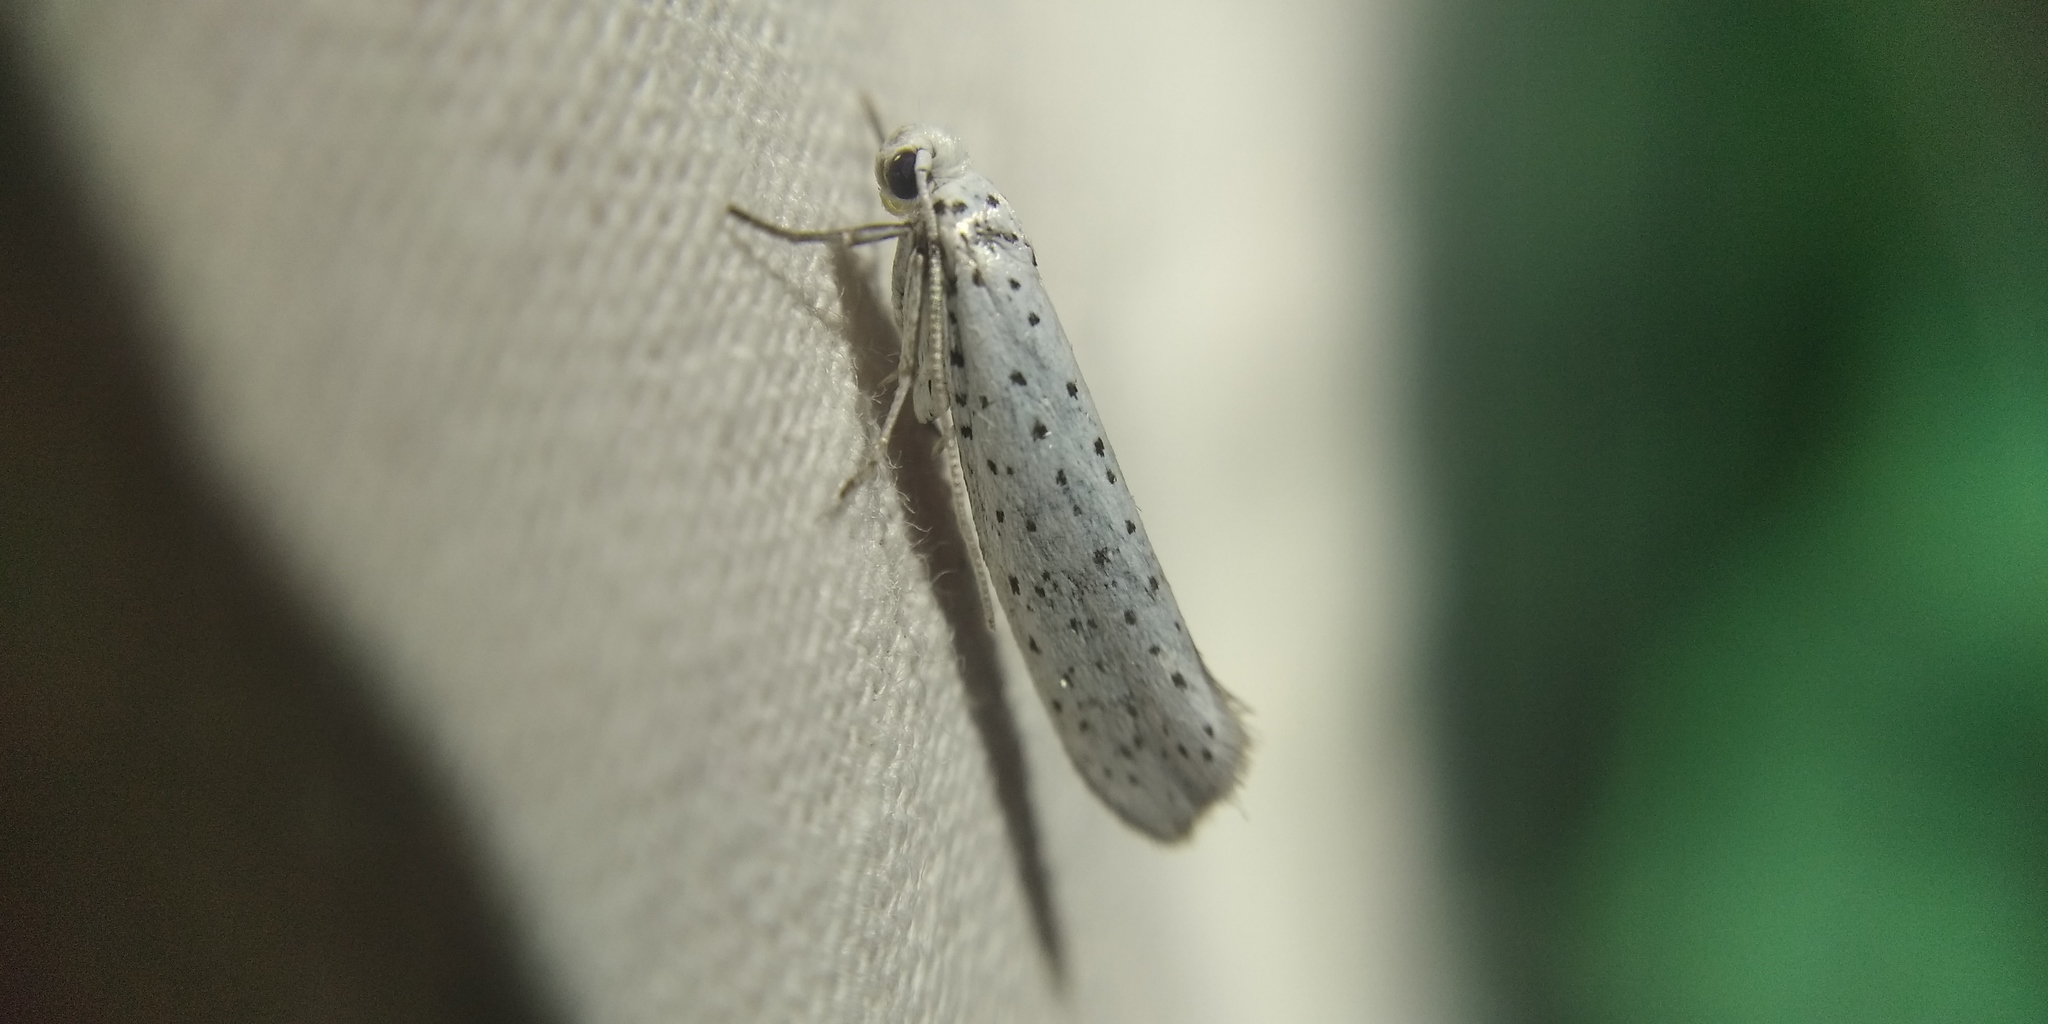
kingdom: Animalia
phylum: Arthropoda
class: Insecta
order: Lepidoptera
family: Yponomeutidae
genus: Yponomeuta
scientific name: Yponomeuta evonymella
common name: Bird-cherry ermine
